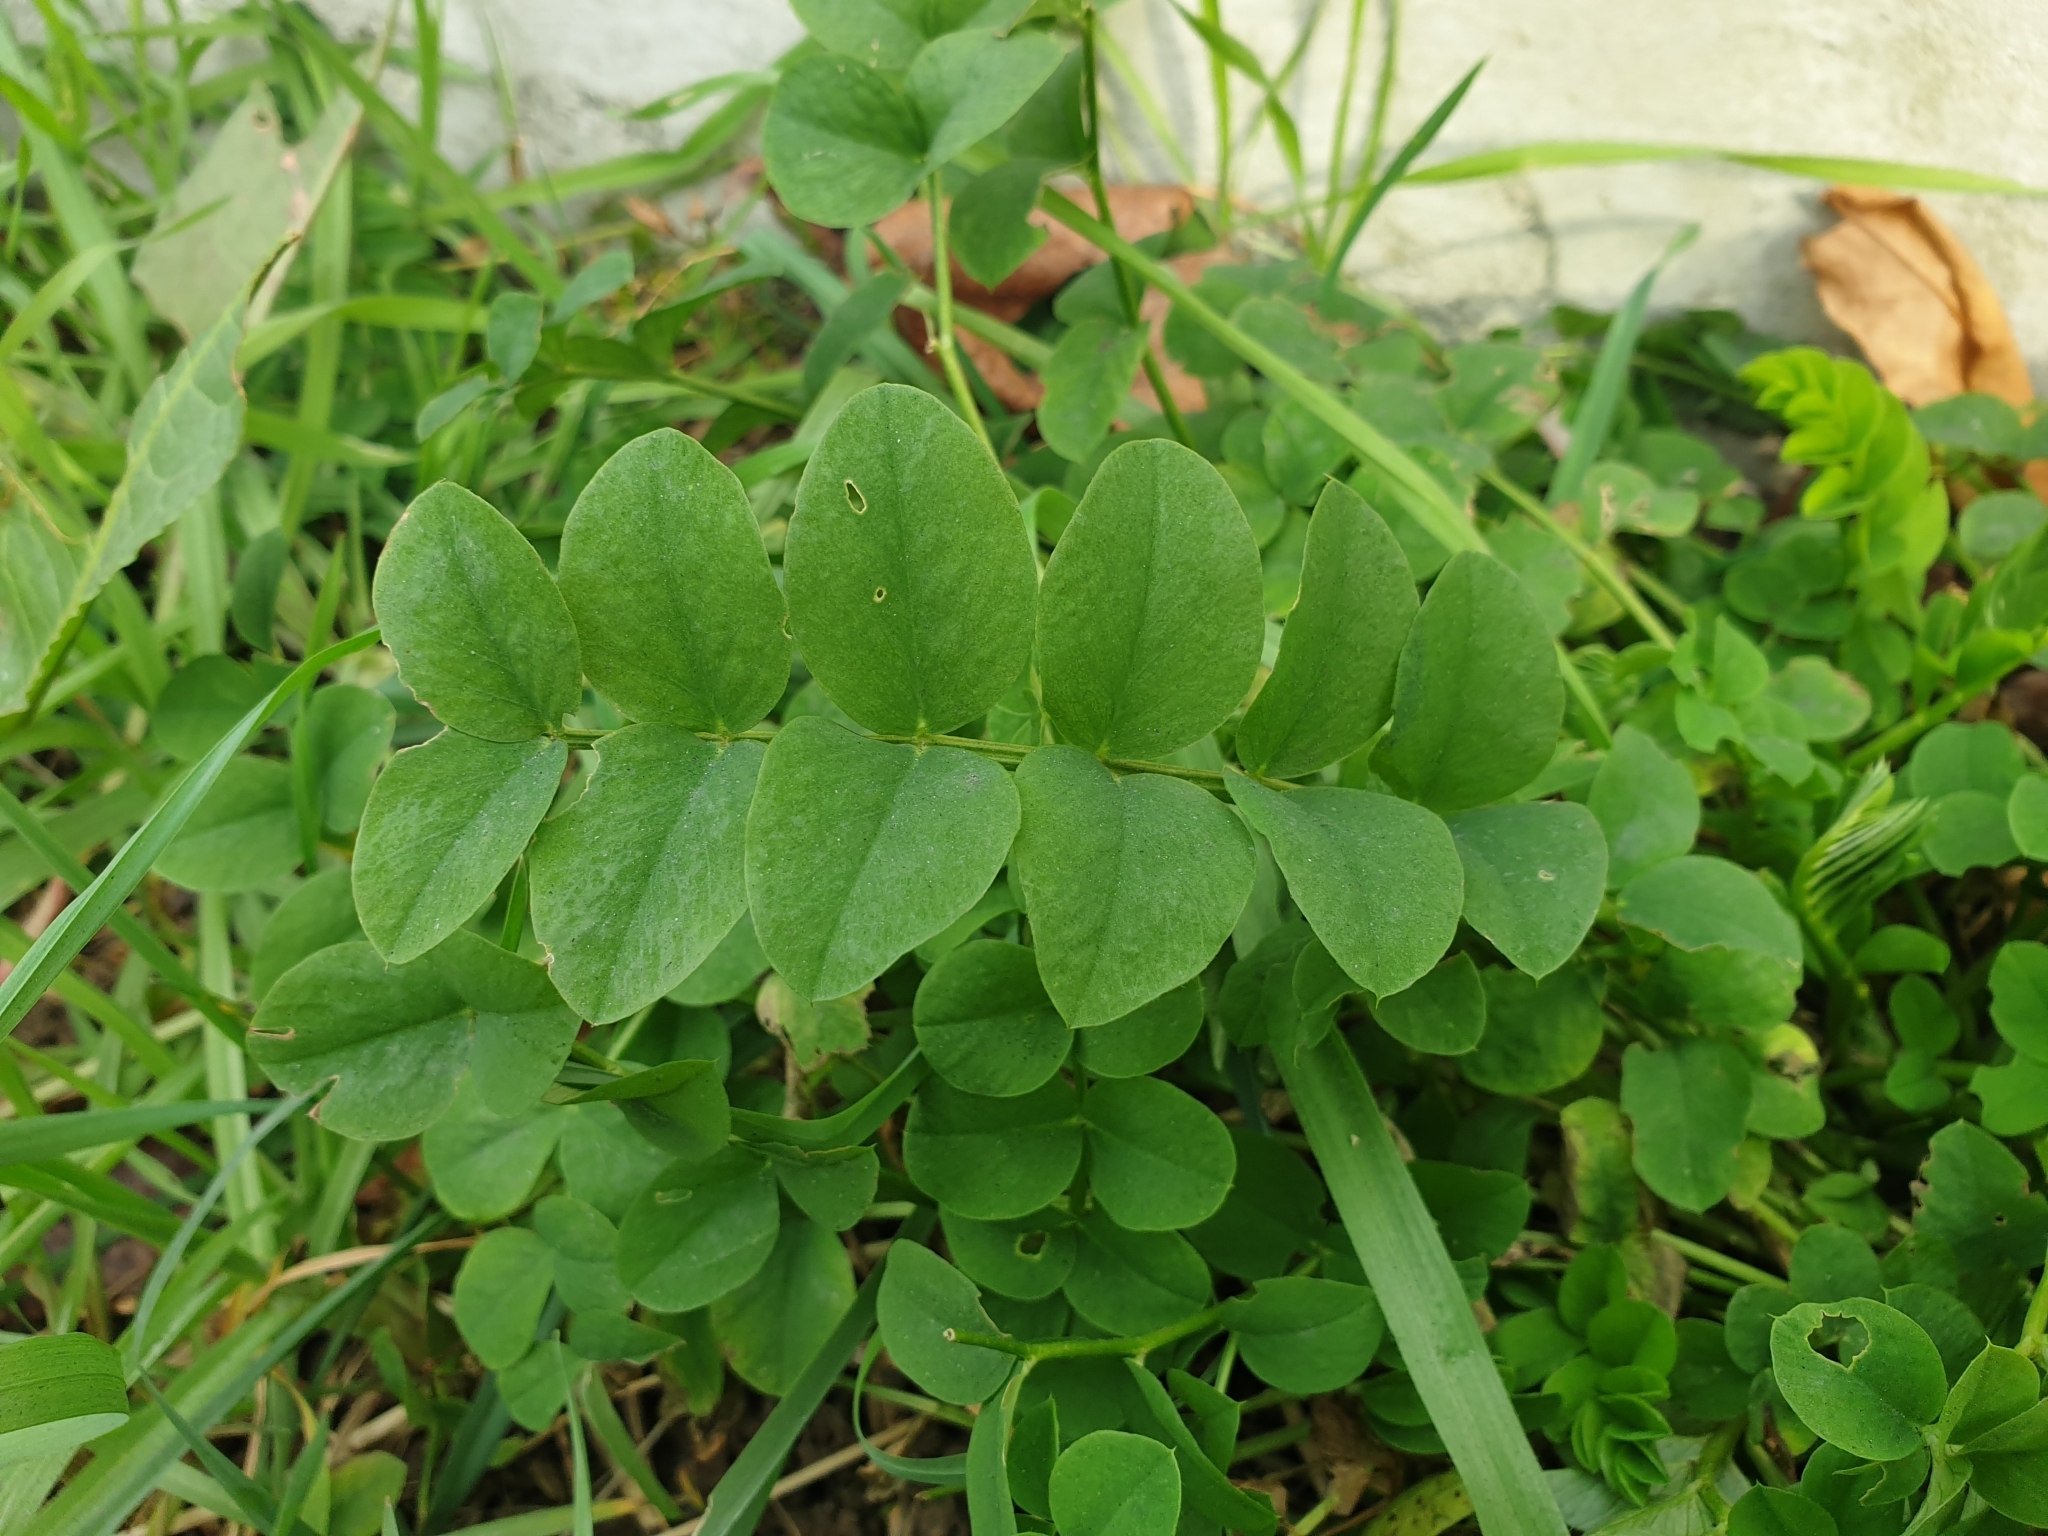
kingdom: Plantae
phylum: Tracheophyta
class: Magnoliopsida
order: Fabales
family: Fabaceae
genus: Galega
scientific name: Galega officinalis
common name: Goat's-rue
